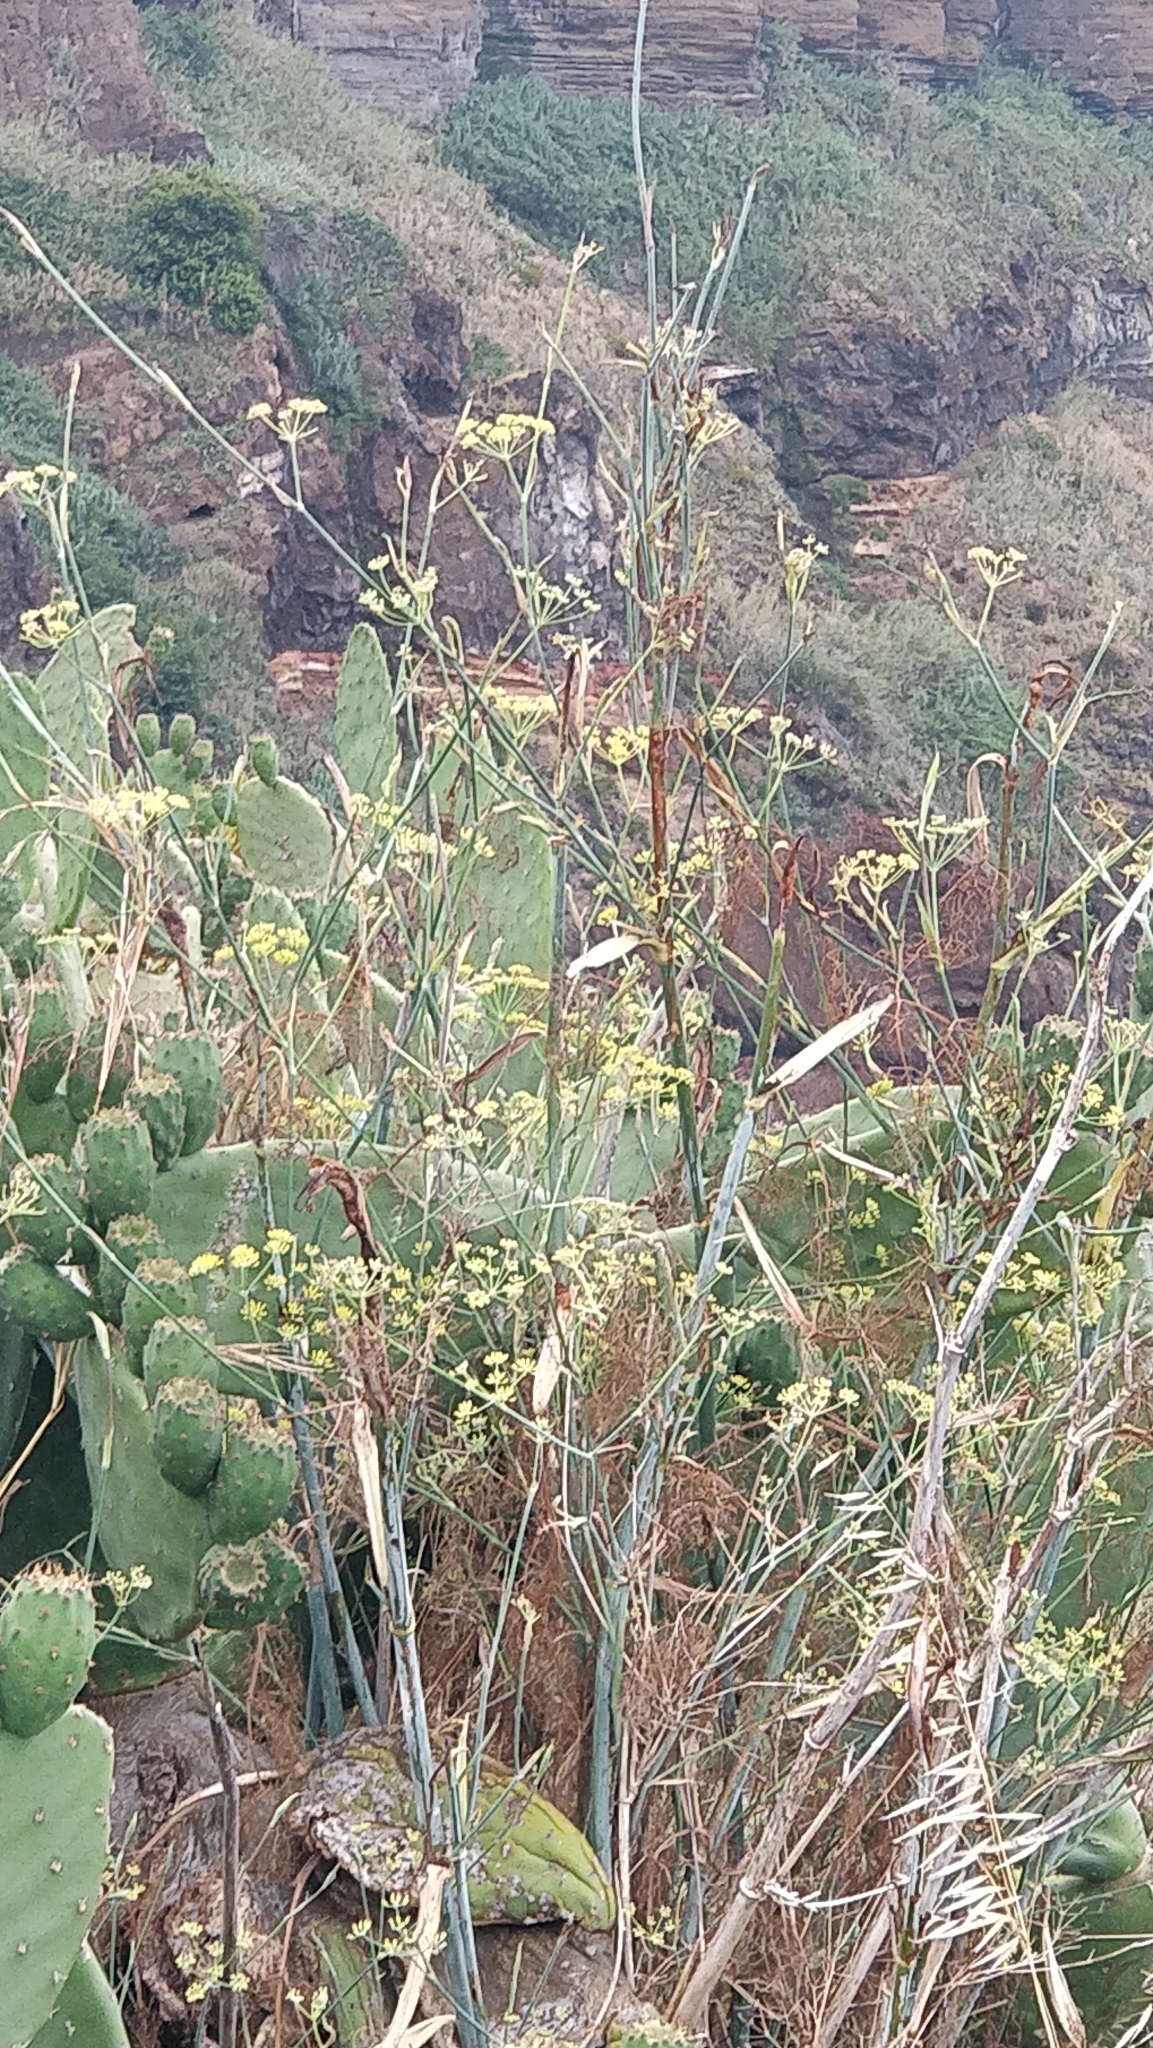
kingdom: Plantae
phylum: Tracheophyta
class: Magnoliopsida
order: Apiales
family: Apiaceae
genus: Foeniculum
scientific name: Foeniculum vulgare
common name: Fennel
